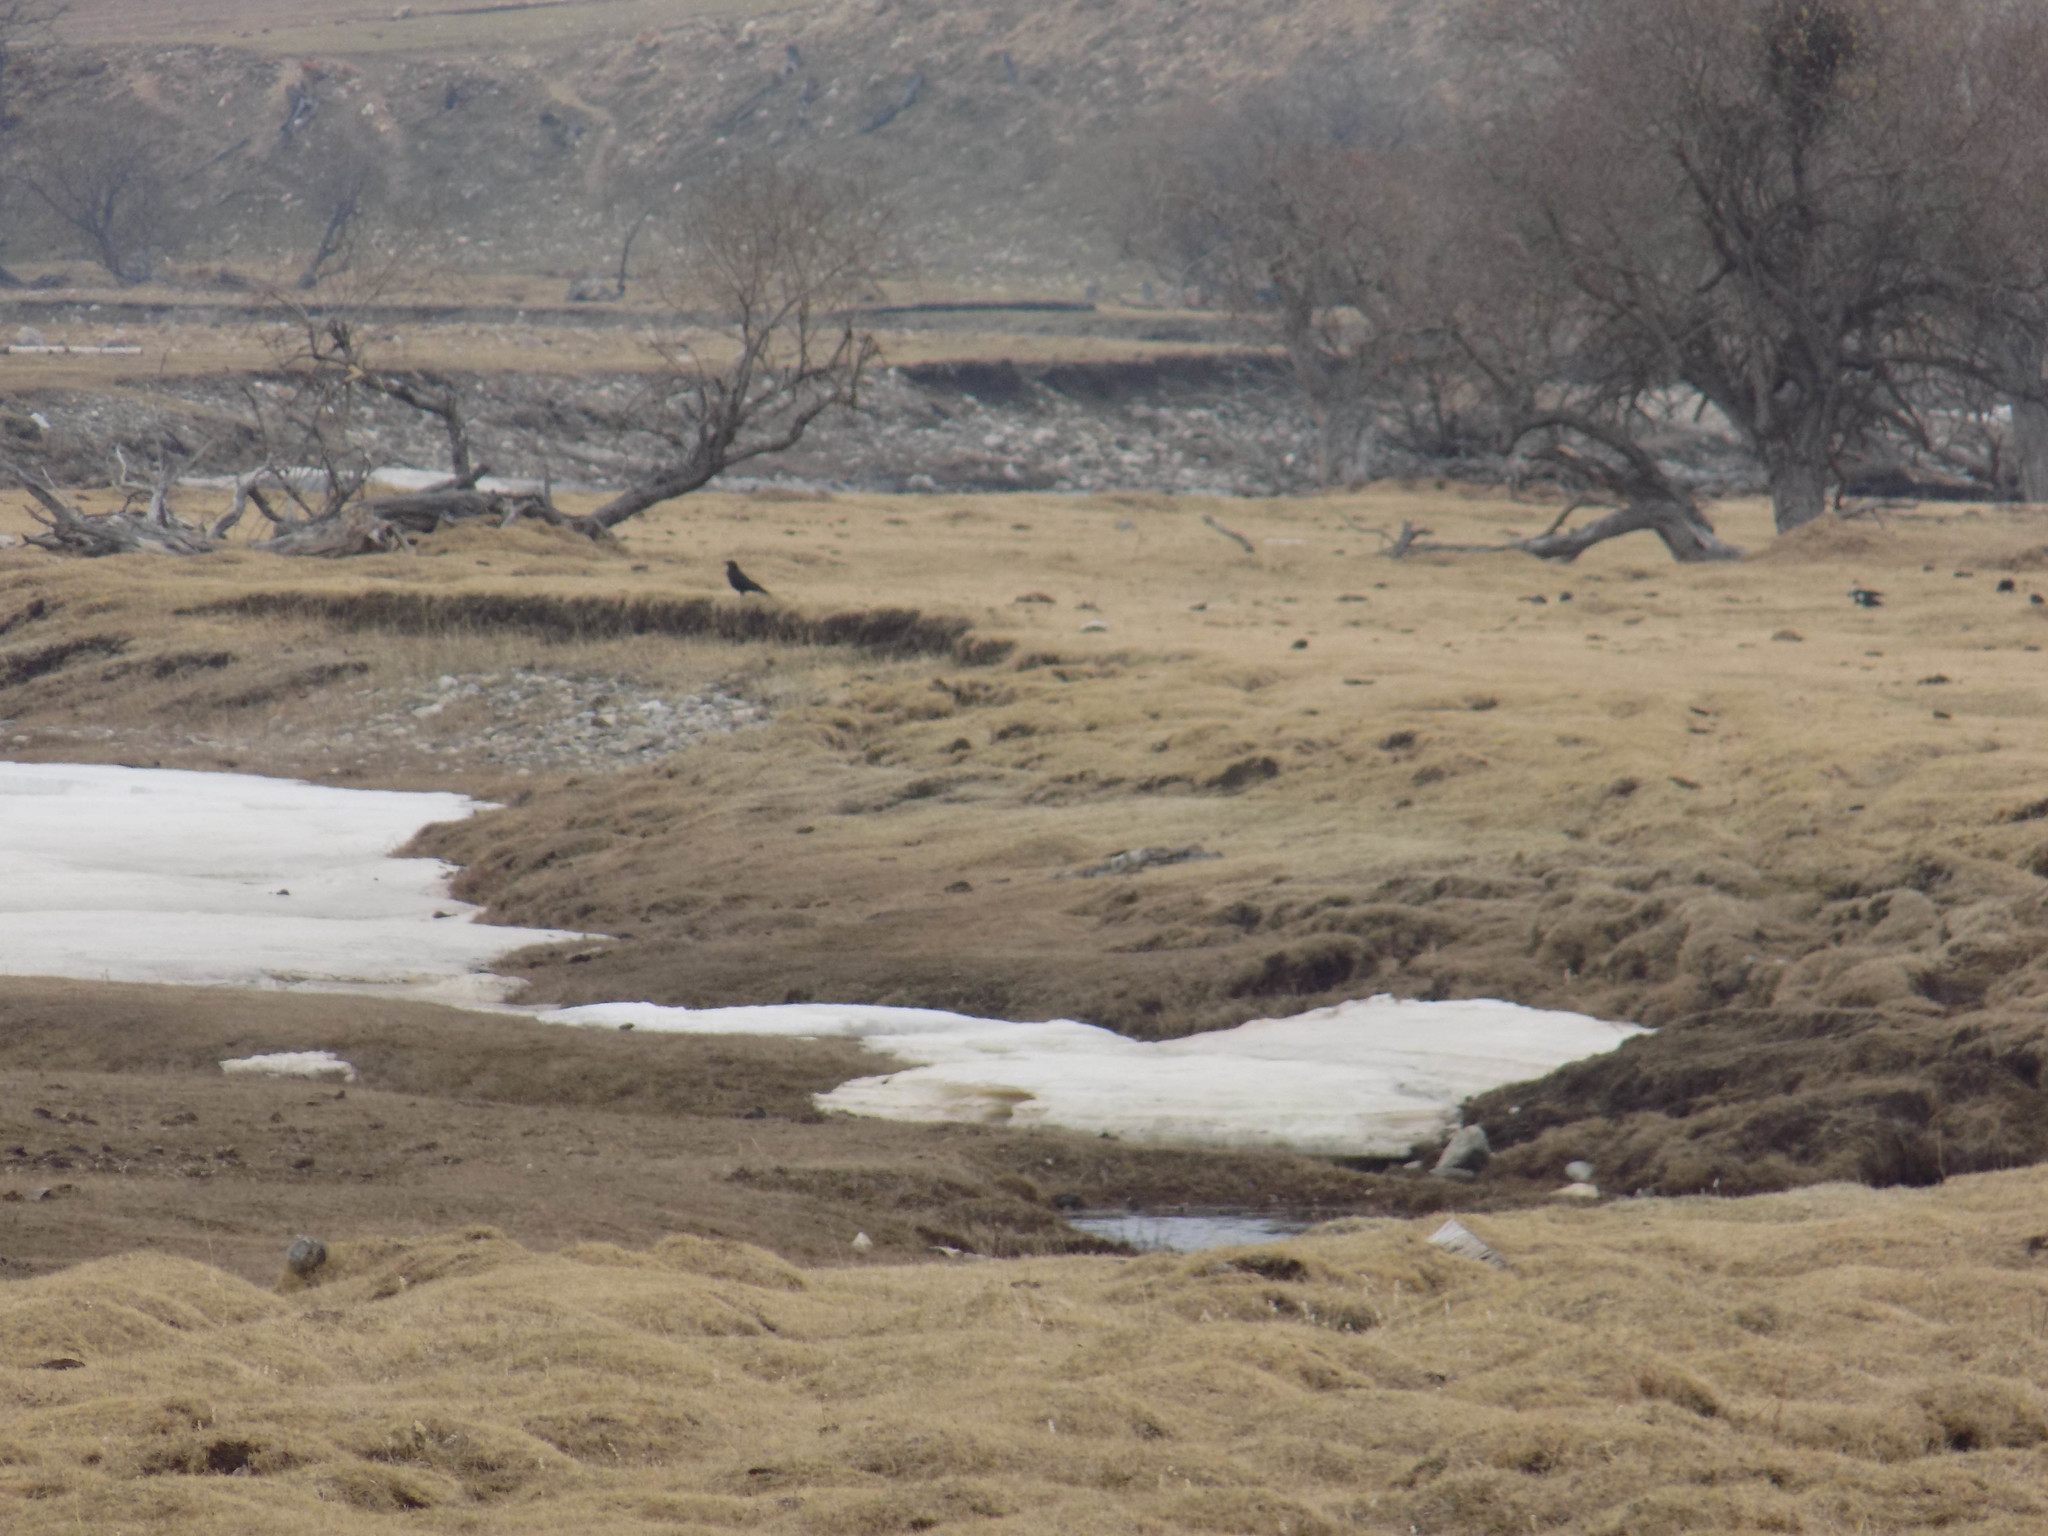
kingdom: Animalia
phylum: Chordata
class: Aves
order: Passeriformes
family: Corvidae
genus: Corvus
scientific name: Corvus corone
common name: Carrion crow
